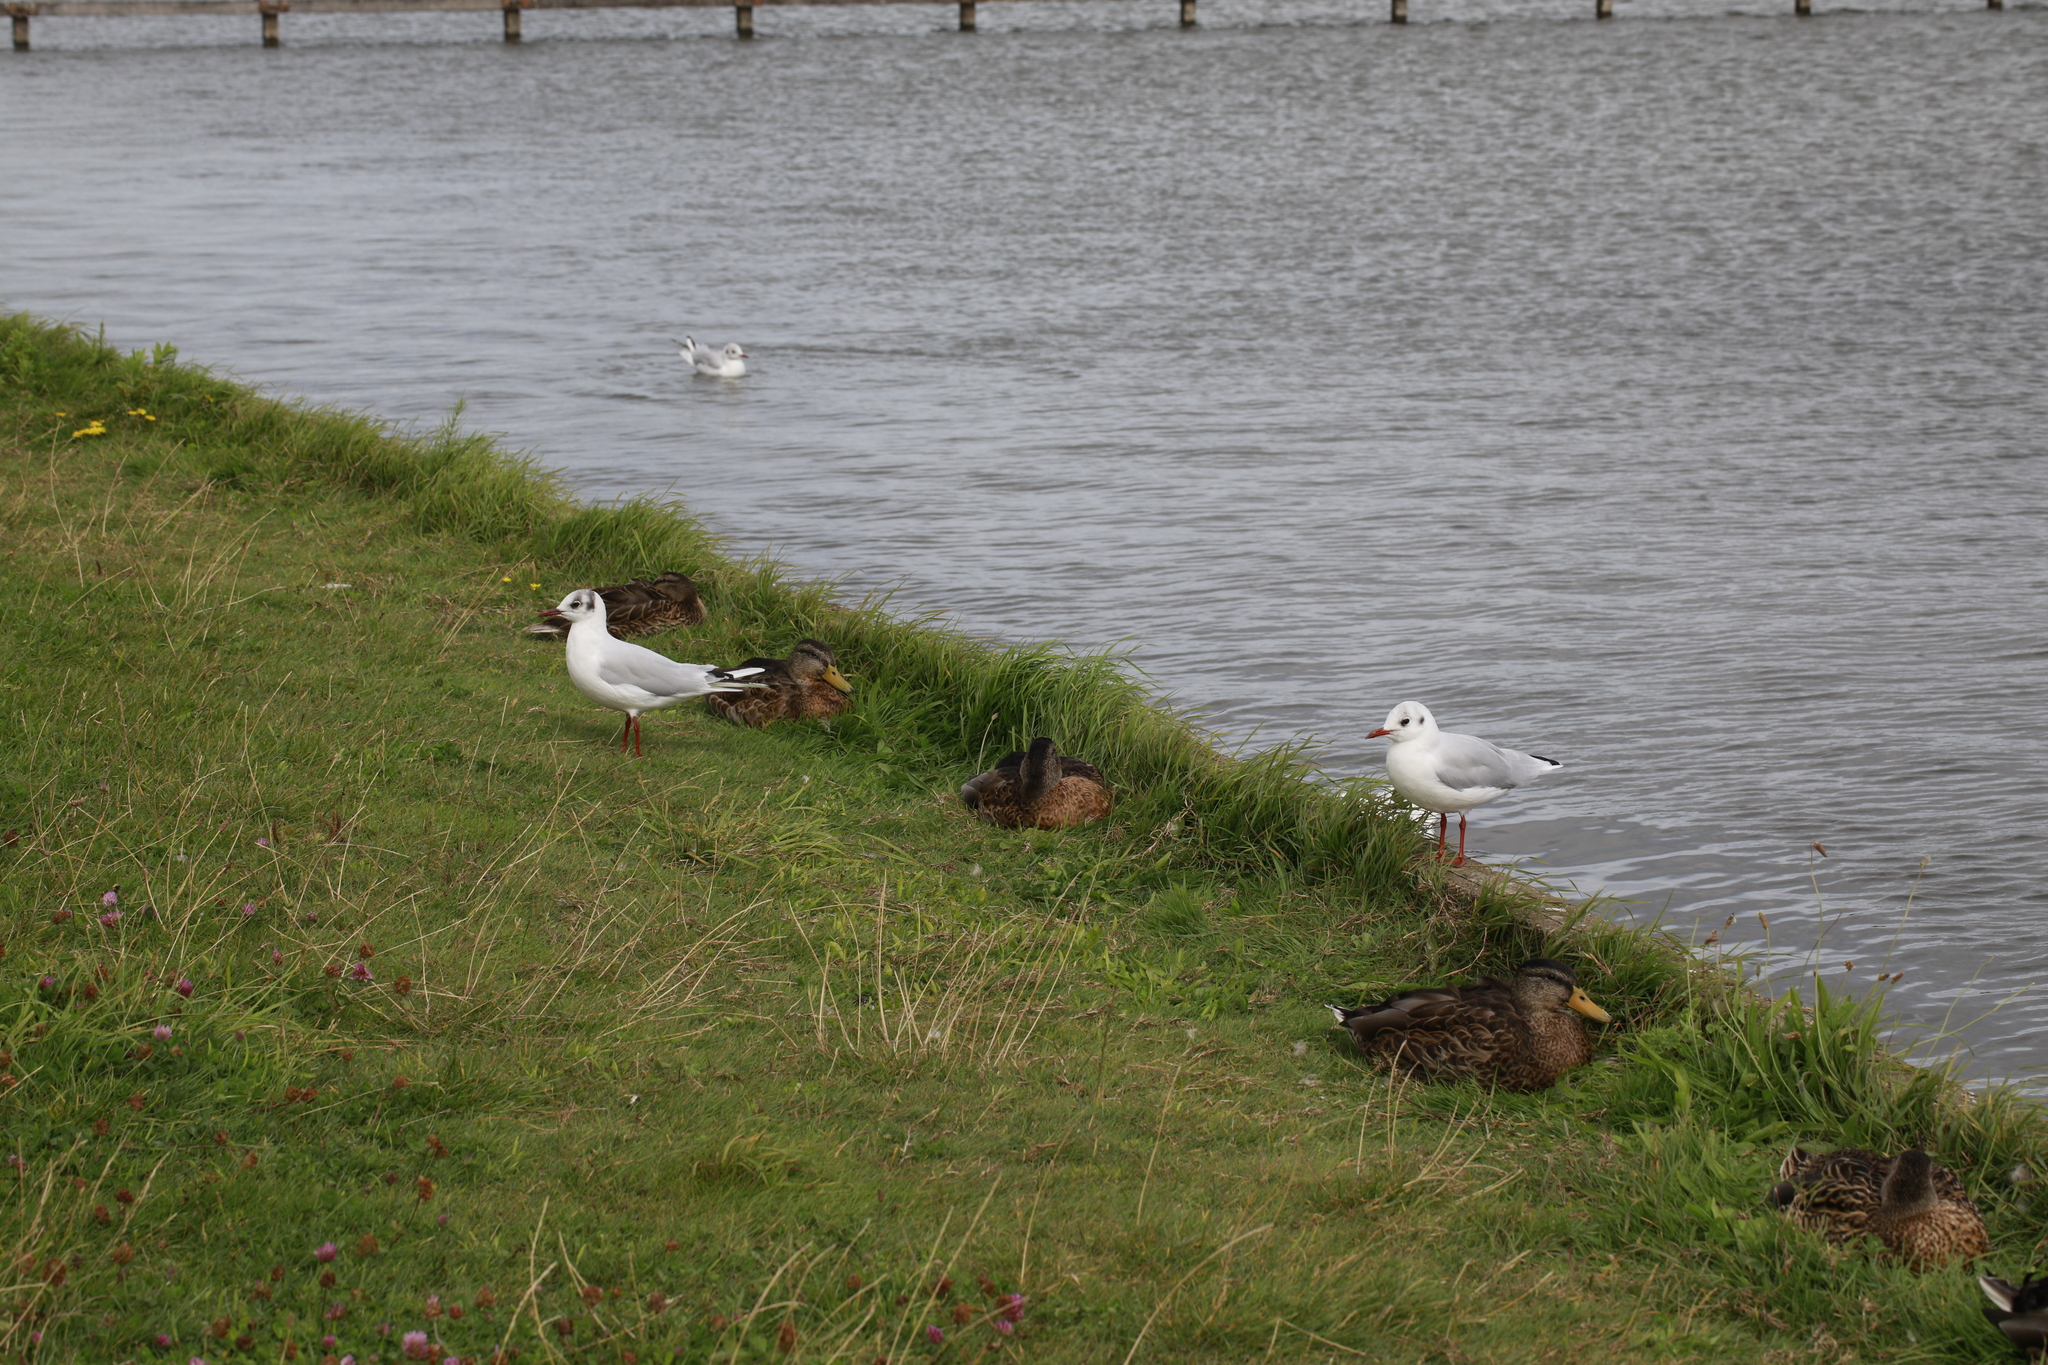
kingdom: Animalia
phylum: Chordata
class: Aves
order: Charadriiformes
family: Laridae
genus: Chroicocephalus
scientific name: Chroicocephalus ridibundus
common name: Black-headed gull
